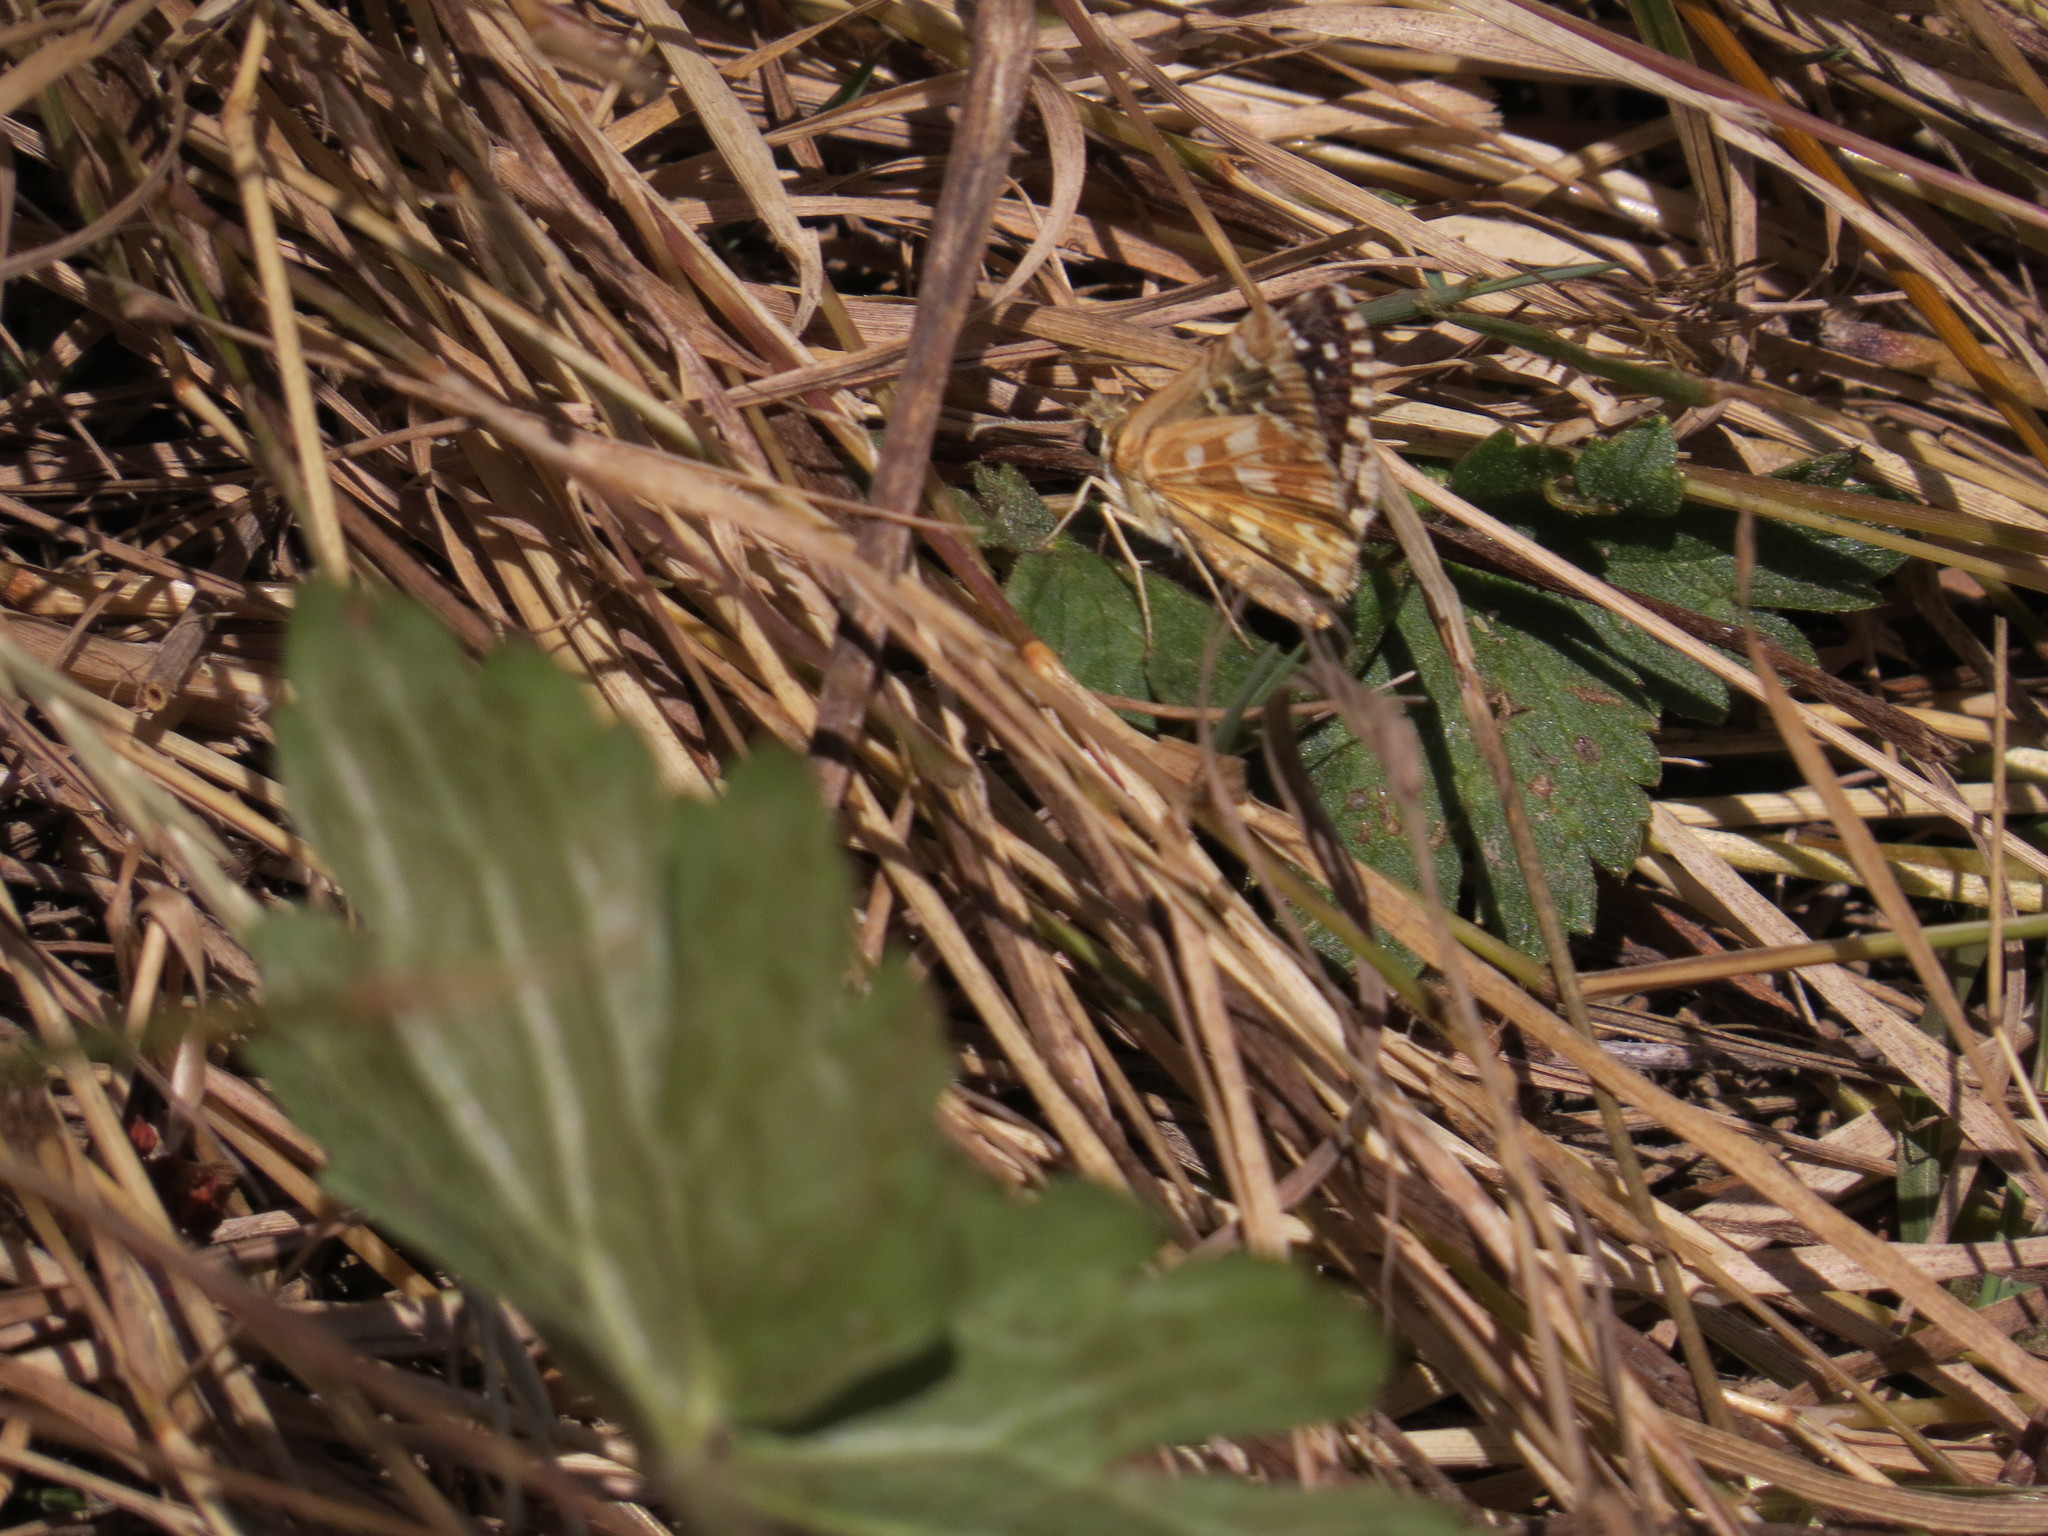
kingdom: Animalia
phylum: Arthropoda
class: Insecta
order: Lepidoptera
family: Hesperiidae
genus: Pyrgus
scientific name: Pyrgus onopordi
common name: Rosy grizzled skipper
